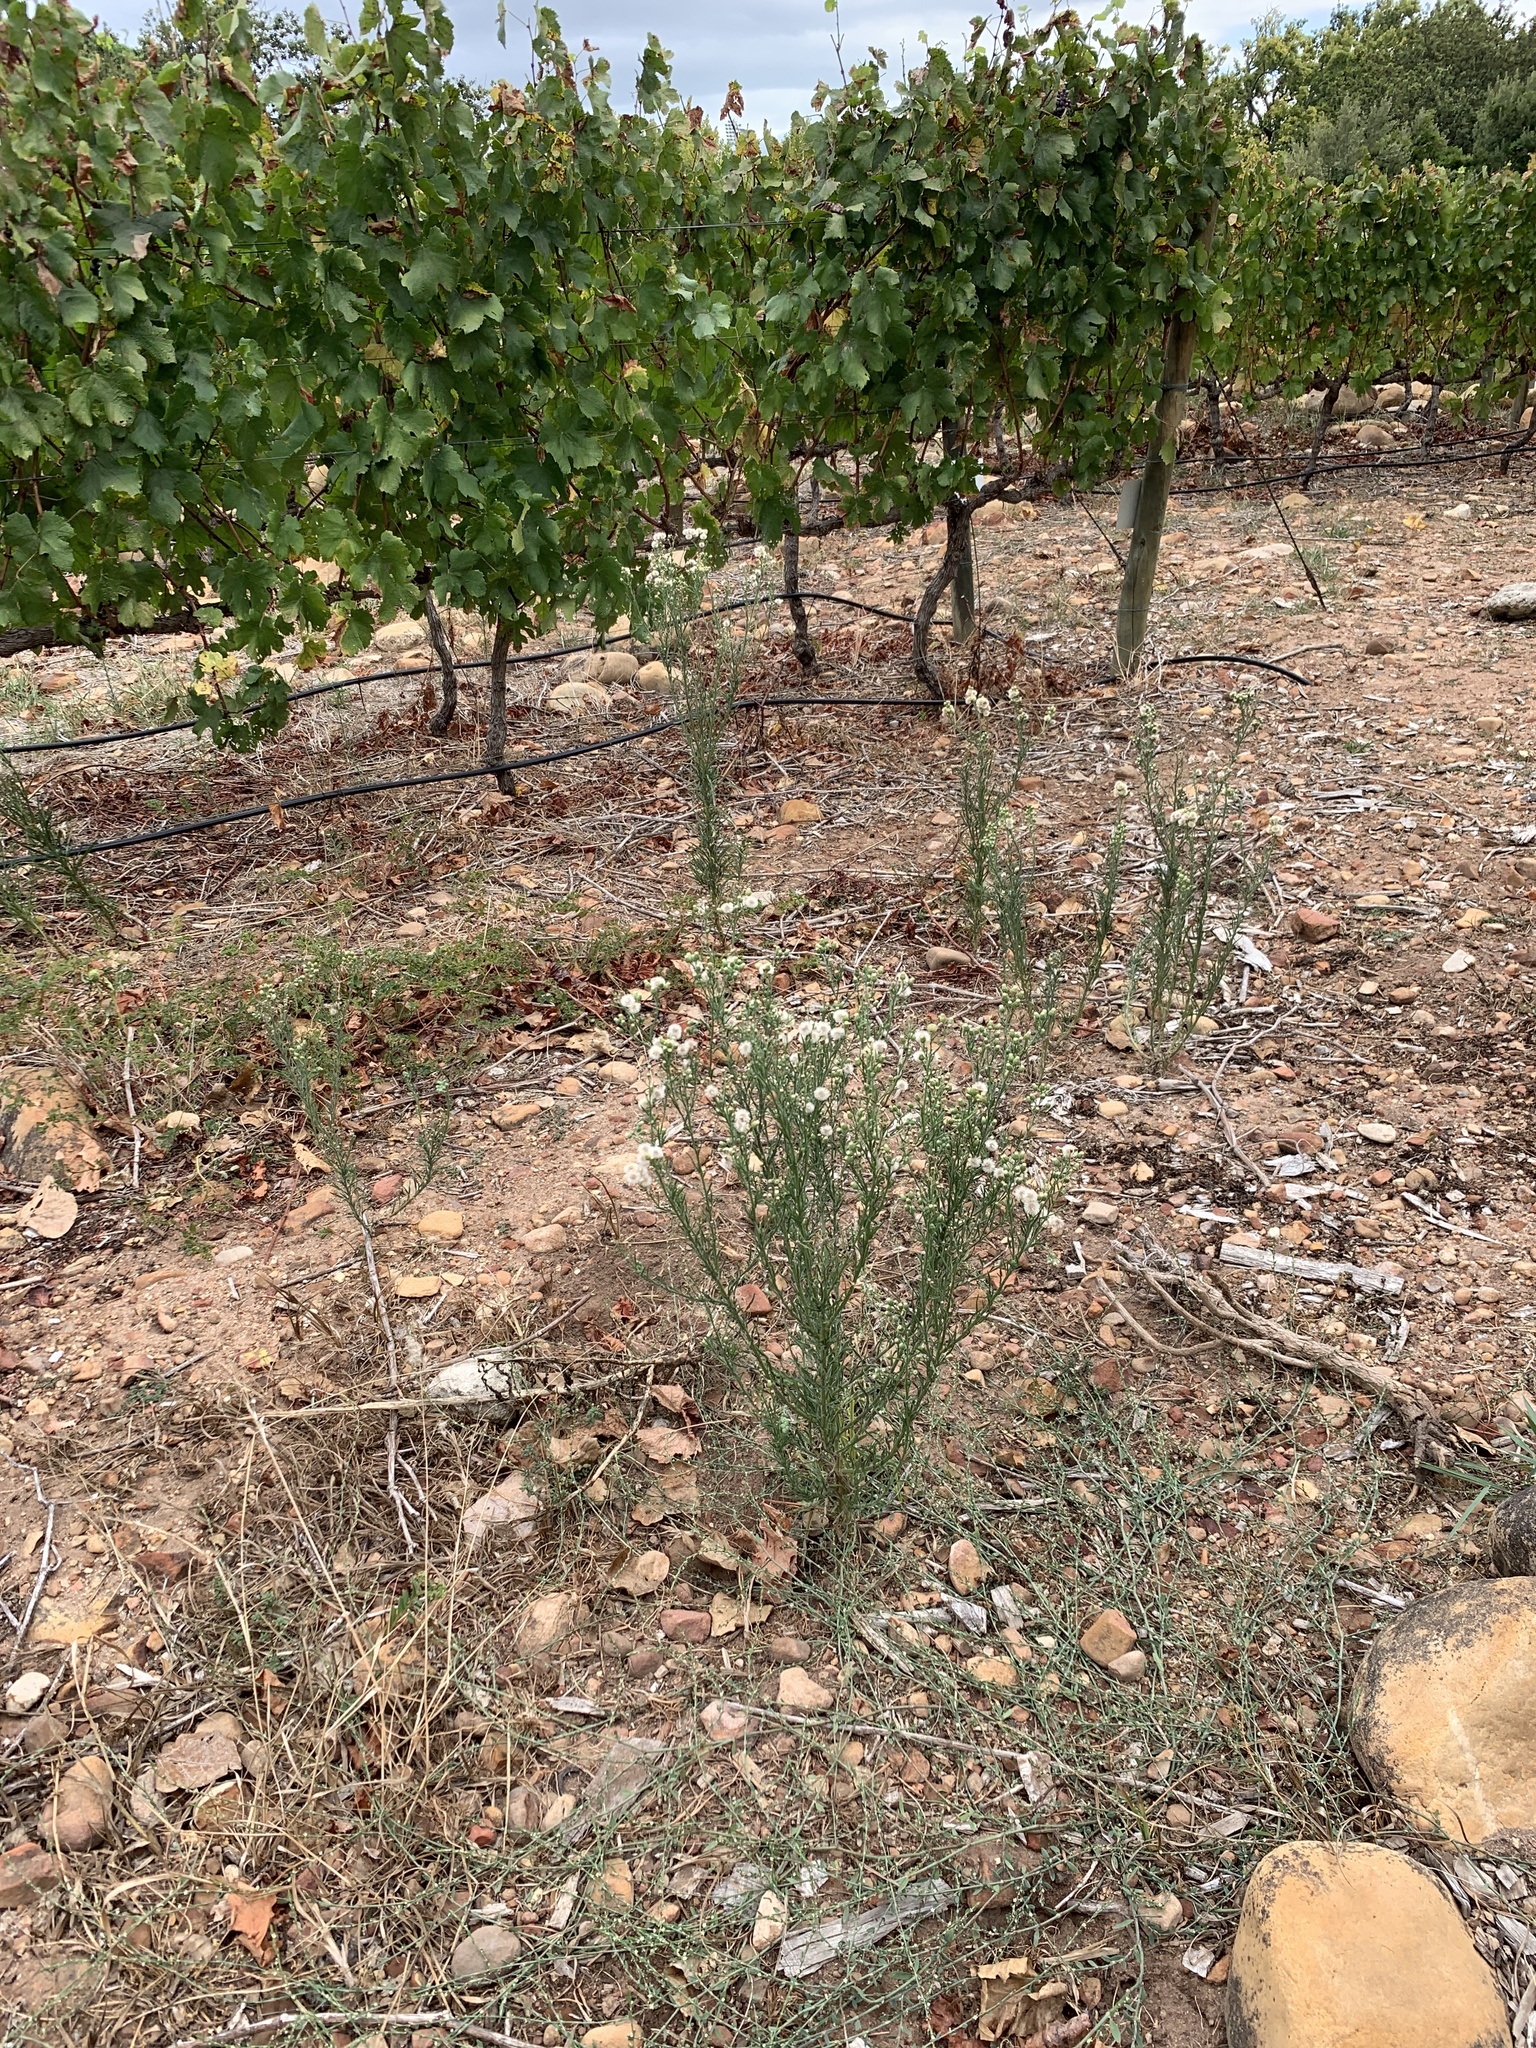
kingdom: Plantae
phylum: Tracheophyta
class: Magnoliopsida
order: Asterales
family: Asteraceae
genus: Erigeron
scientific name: Erigeron bonariensis
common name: Argentine fleabane
